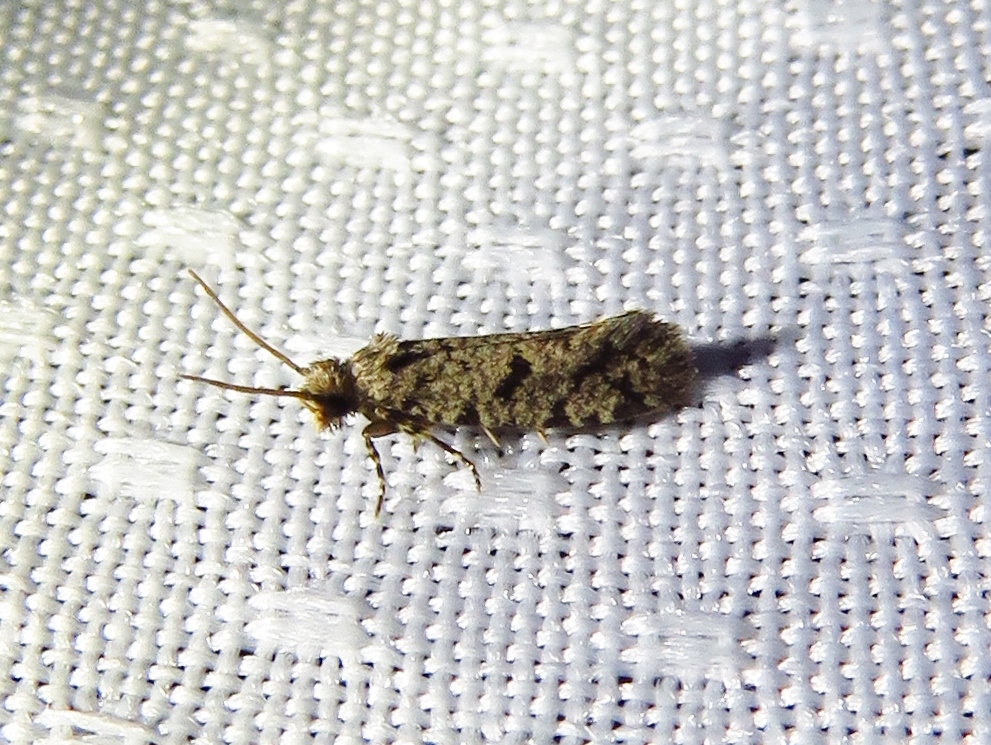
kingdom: Animalia
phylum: Arthropoda
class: Insecta
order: Lepidoptera
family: Tineidae
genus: Amydria
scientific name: Amydria
